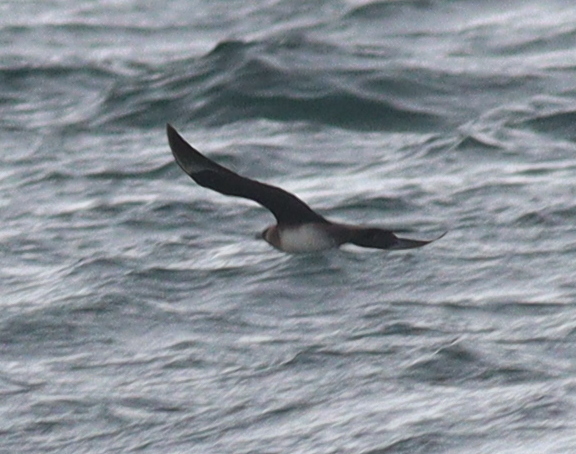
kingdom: Animalia
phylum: Chordata
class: Aves
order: Charadriiformes
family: Stercorariidae
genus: Stercorarius
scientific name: Stercorarius parasiticus
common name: Parasitic jaeger
